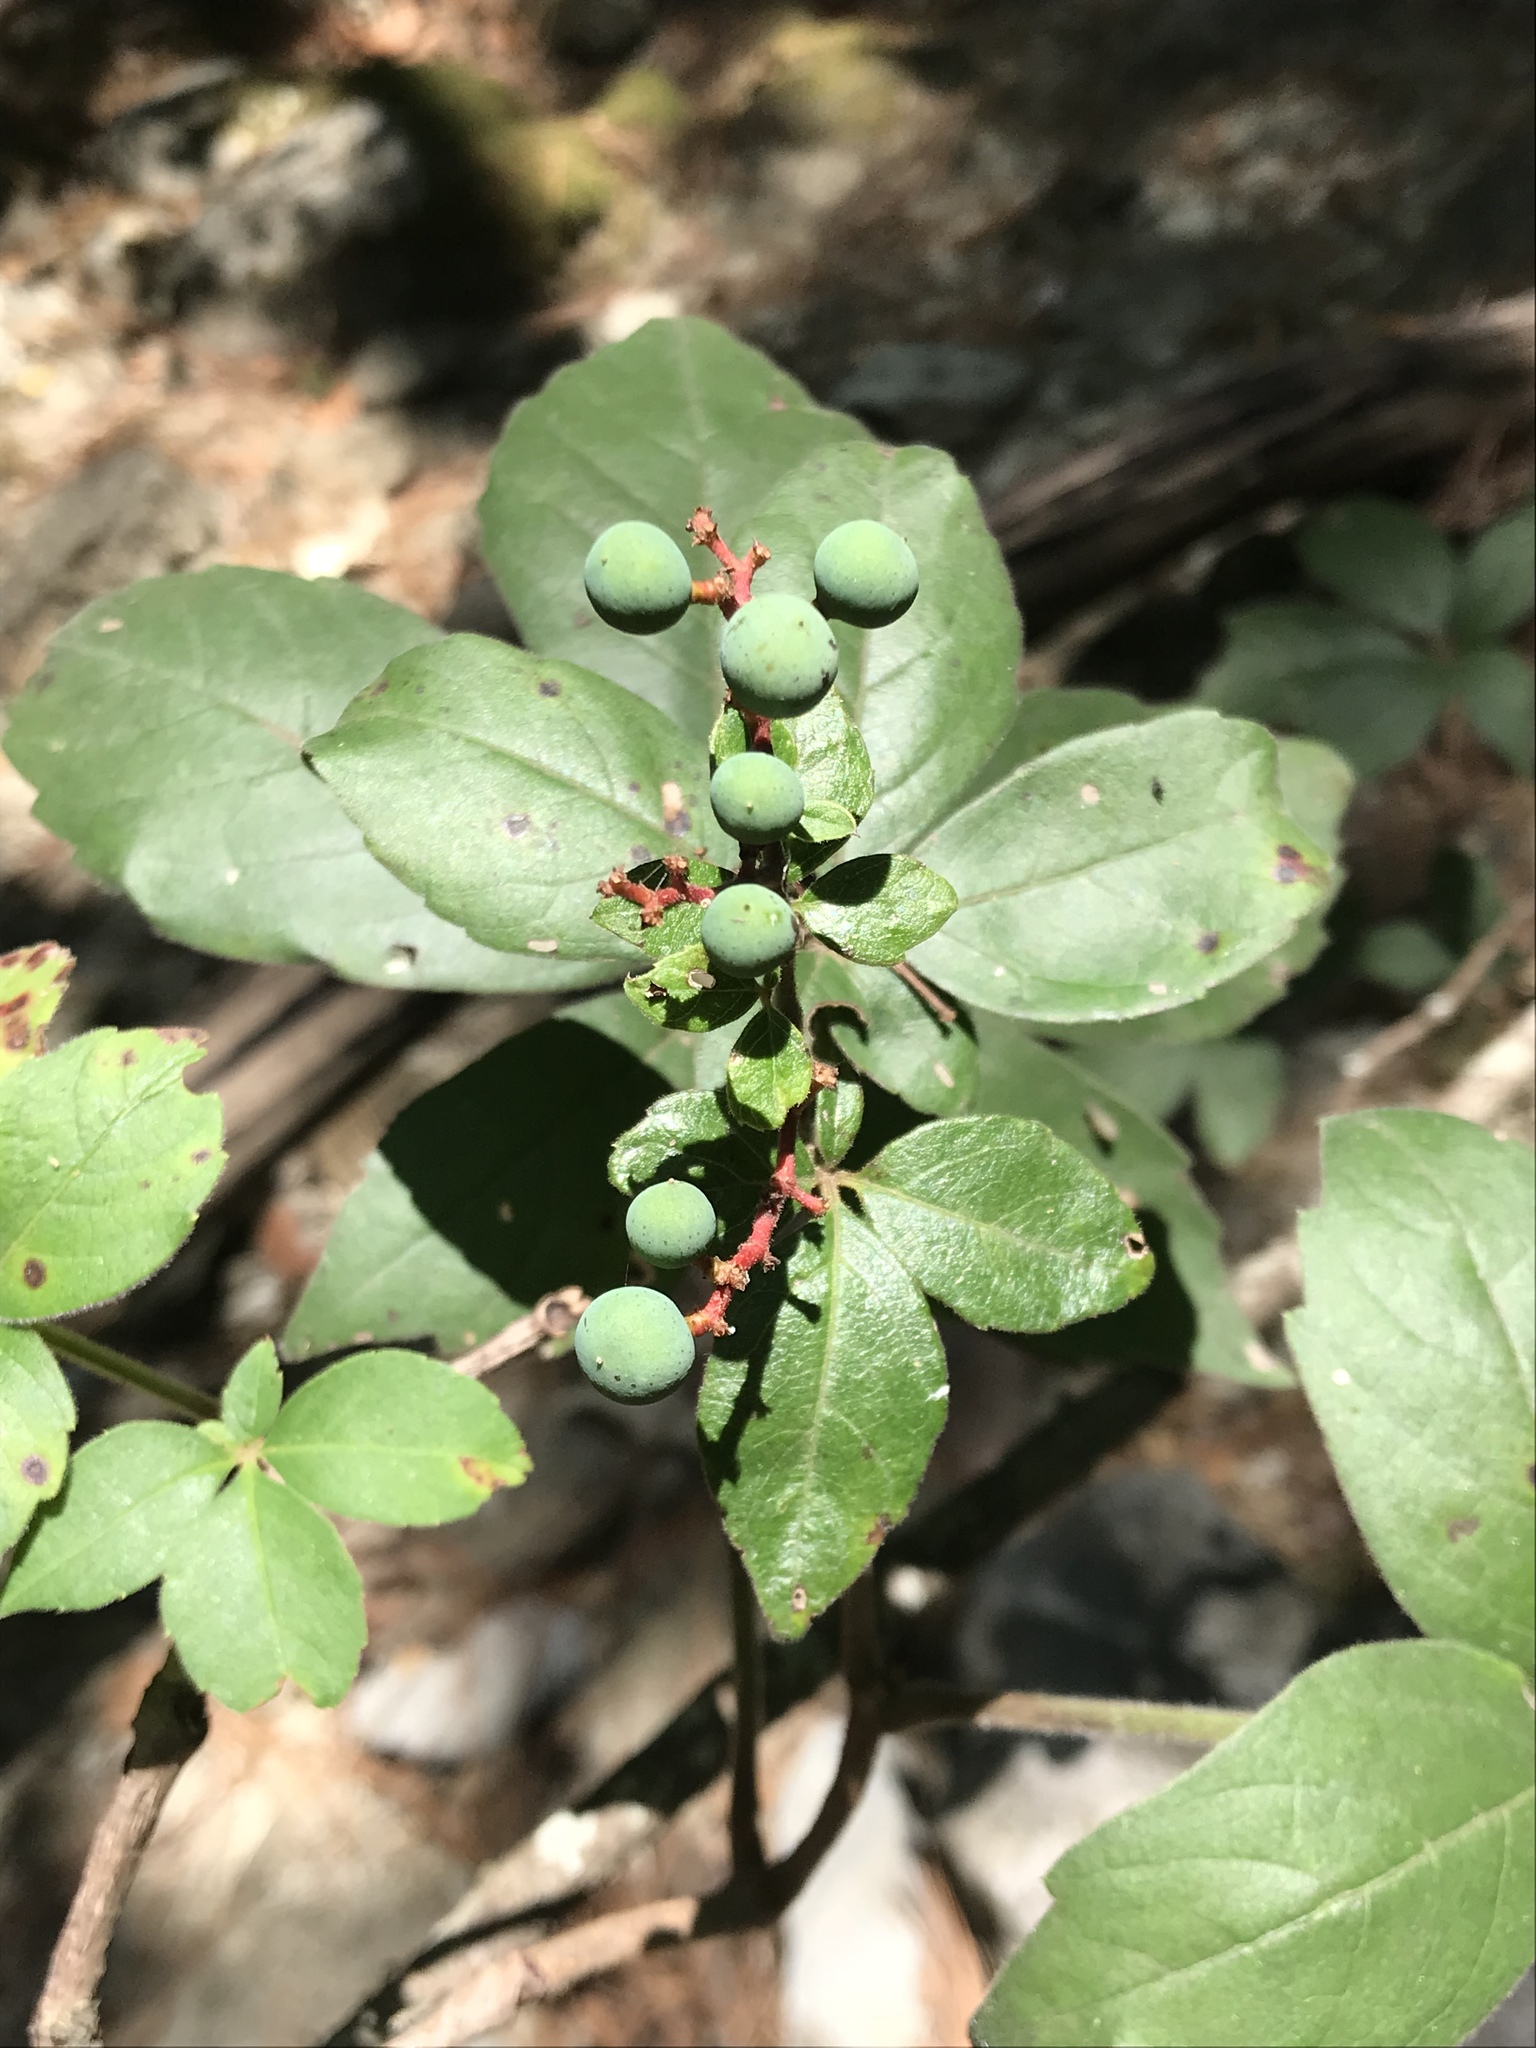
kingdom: Plantae
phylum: Tracheophyta
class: Magnoliopsida
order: Vitales
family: Vitaceae
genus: Parthenocissus
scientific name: Parthenocissus quinquefolia
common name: Virginia-creeper
